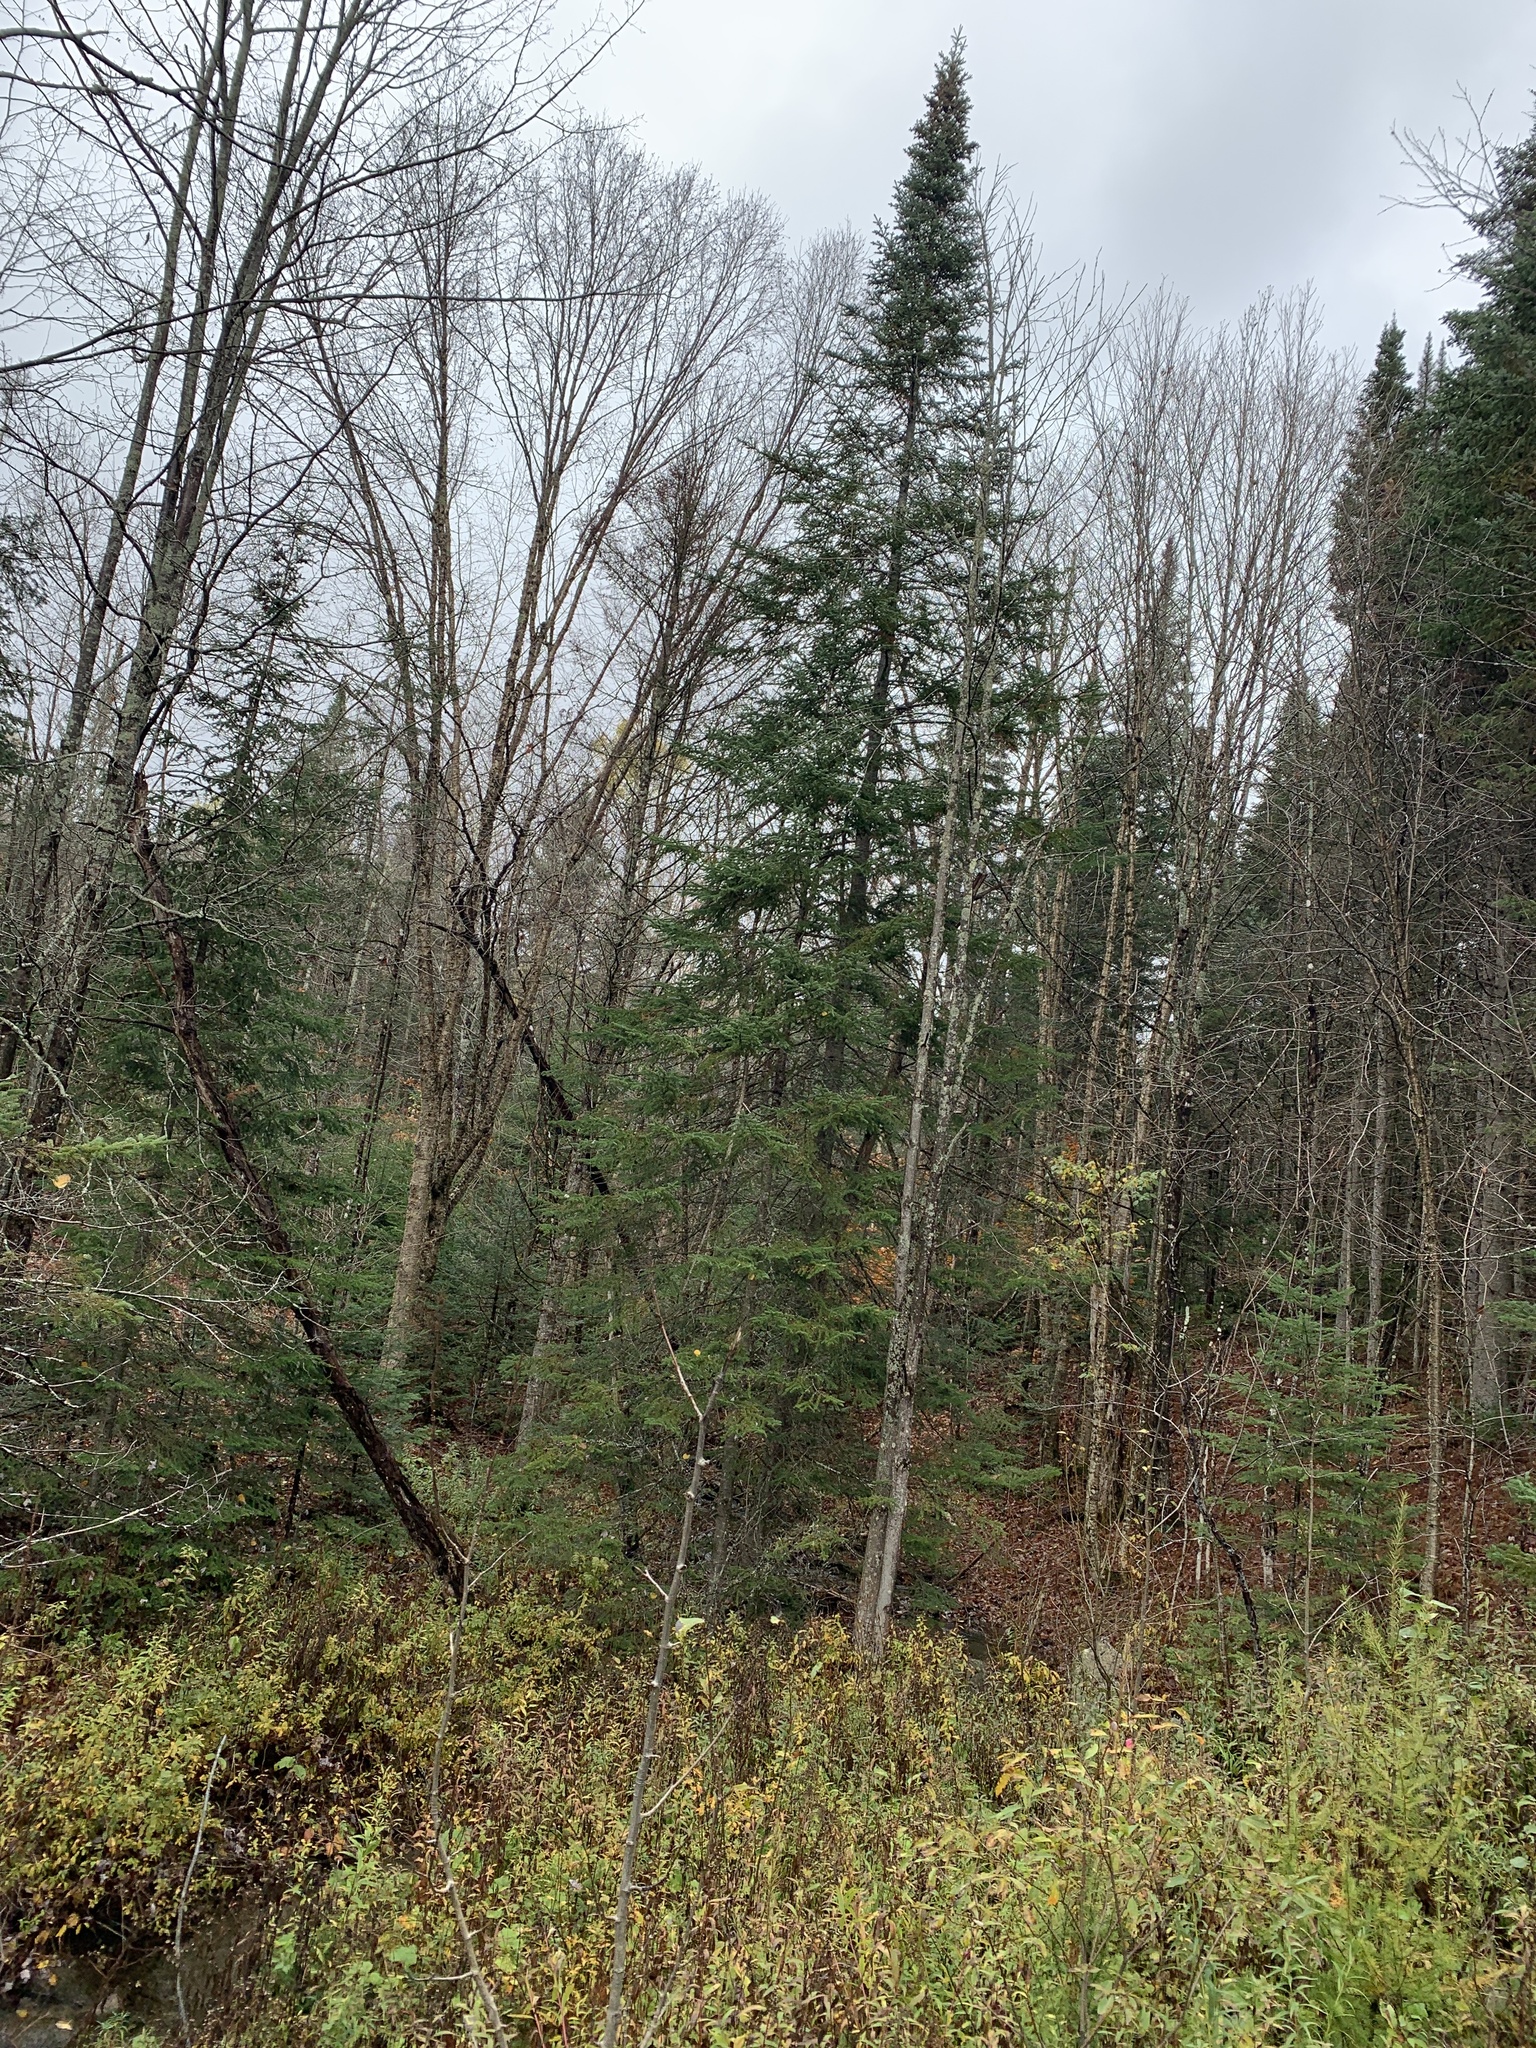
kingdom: Plantae
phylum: Tracheophyta
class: Pinopsida
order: Pinales
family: Pinaceae
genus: Abies
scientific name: Abies balsamea
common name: Balsam fir
